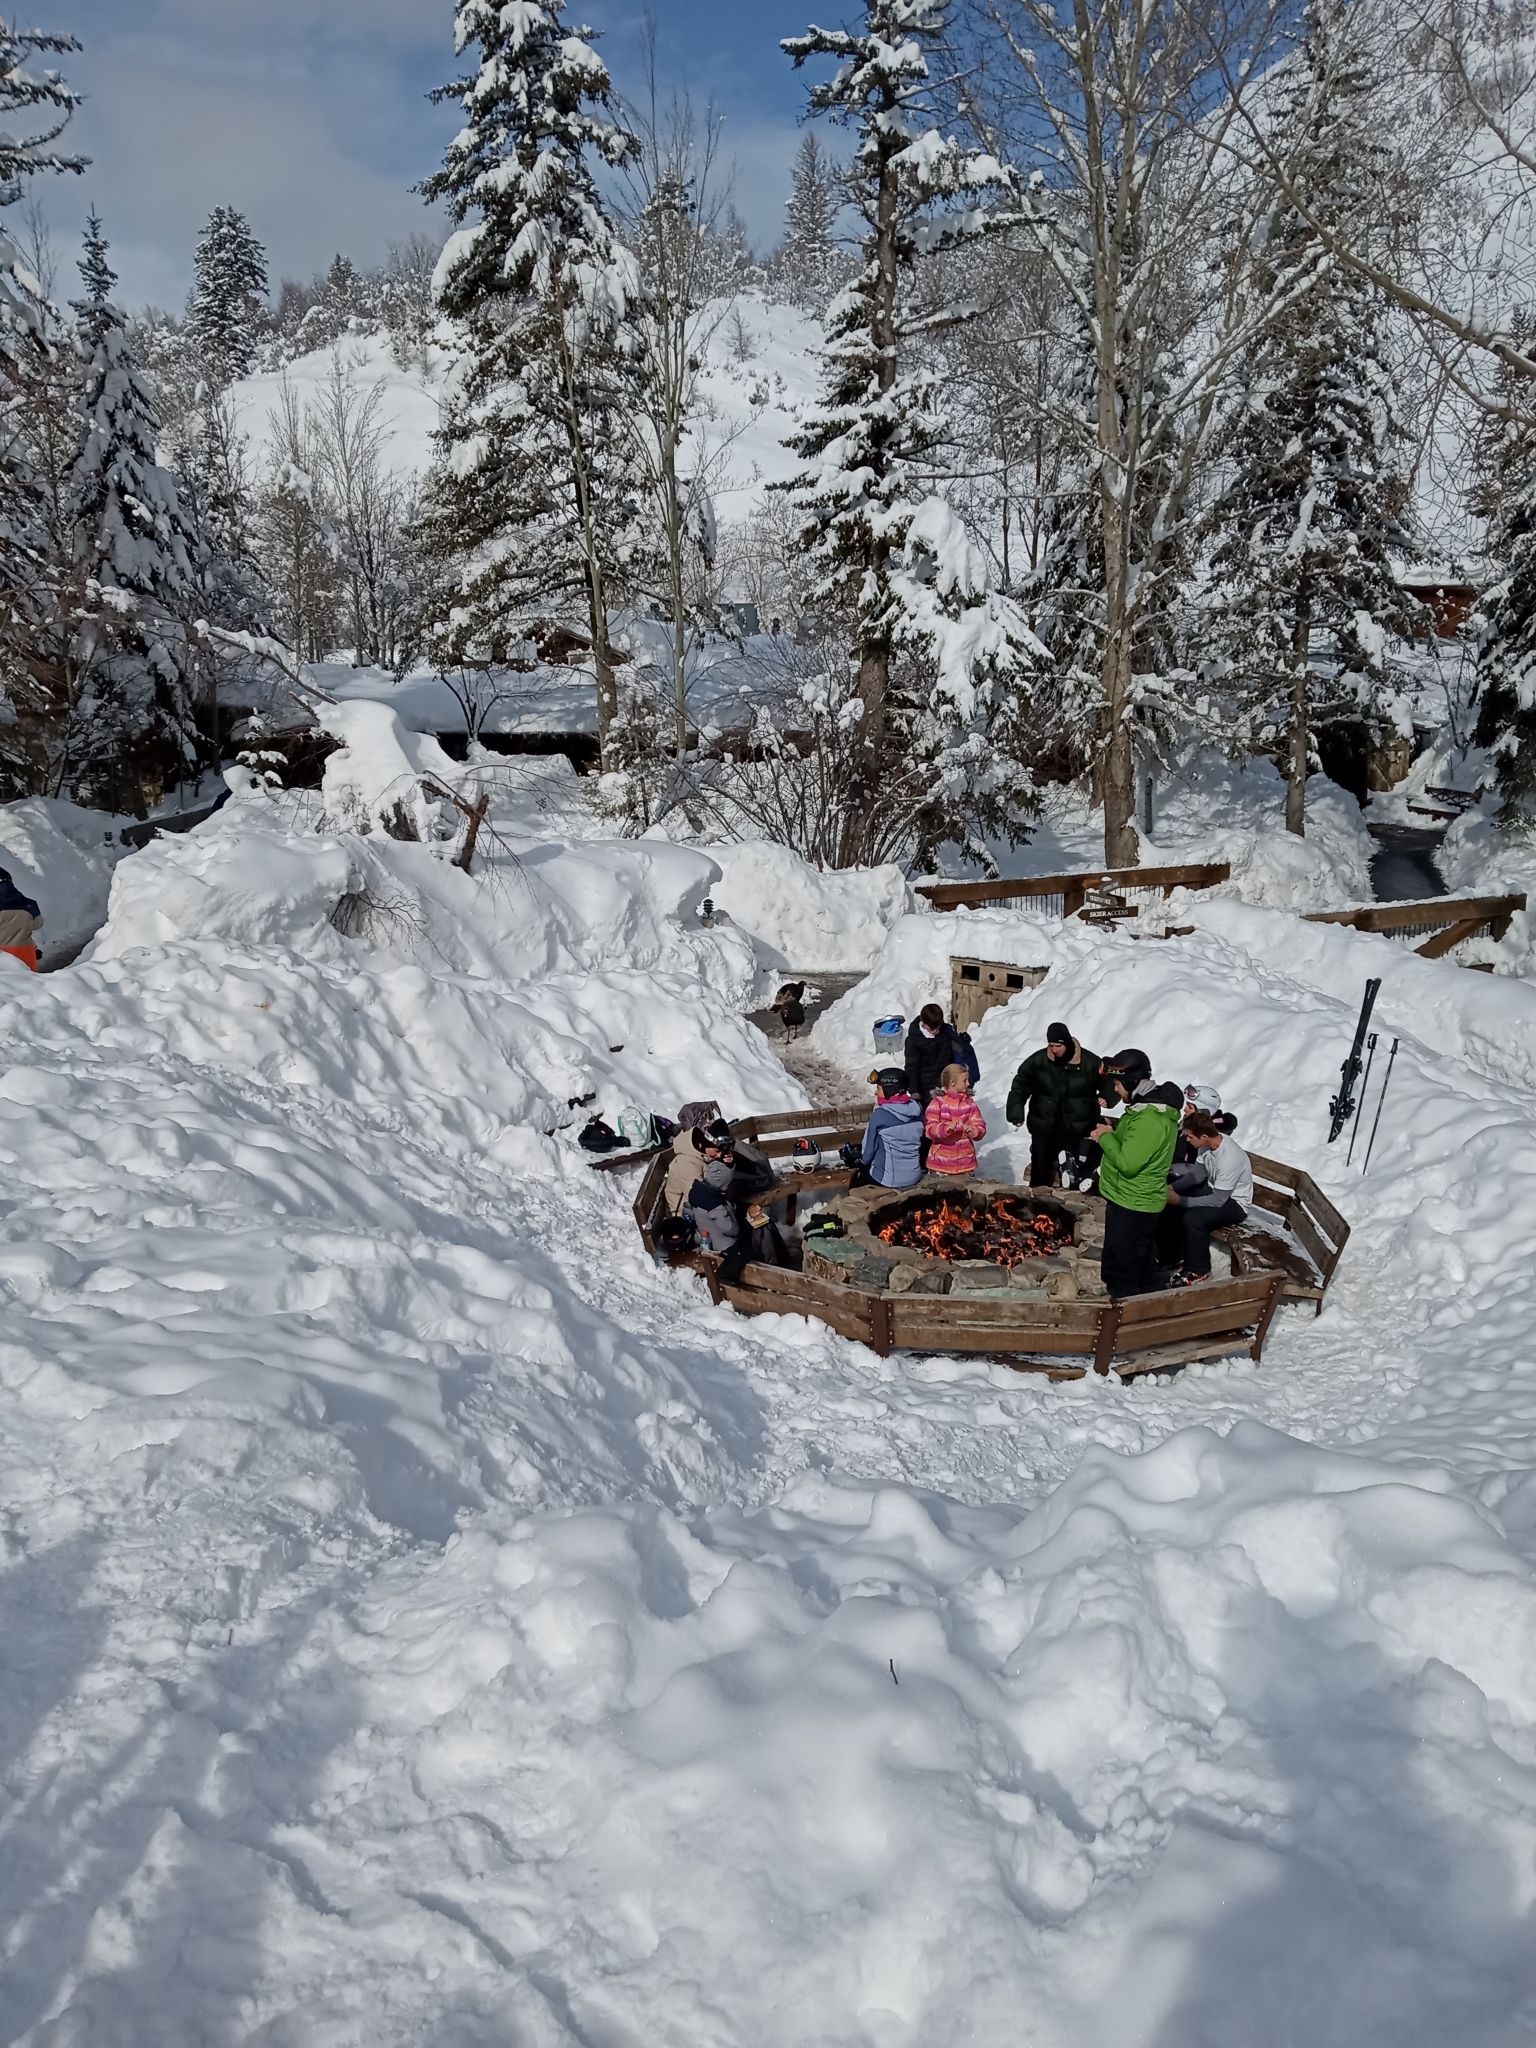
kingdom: Animalia
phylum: Chordata
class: Aves
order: Galliformes
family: Phasianidae
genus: Meleagris
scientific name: Meleagris gallopavo
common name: Wild turkey
